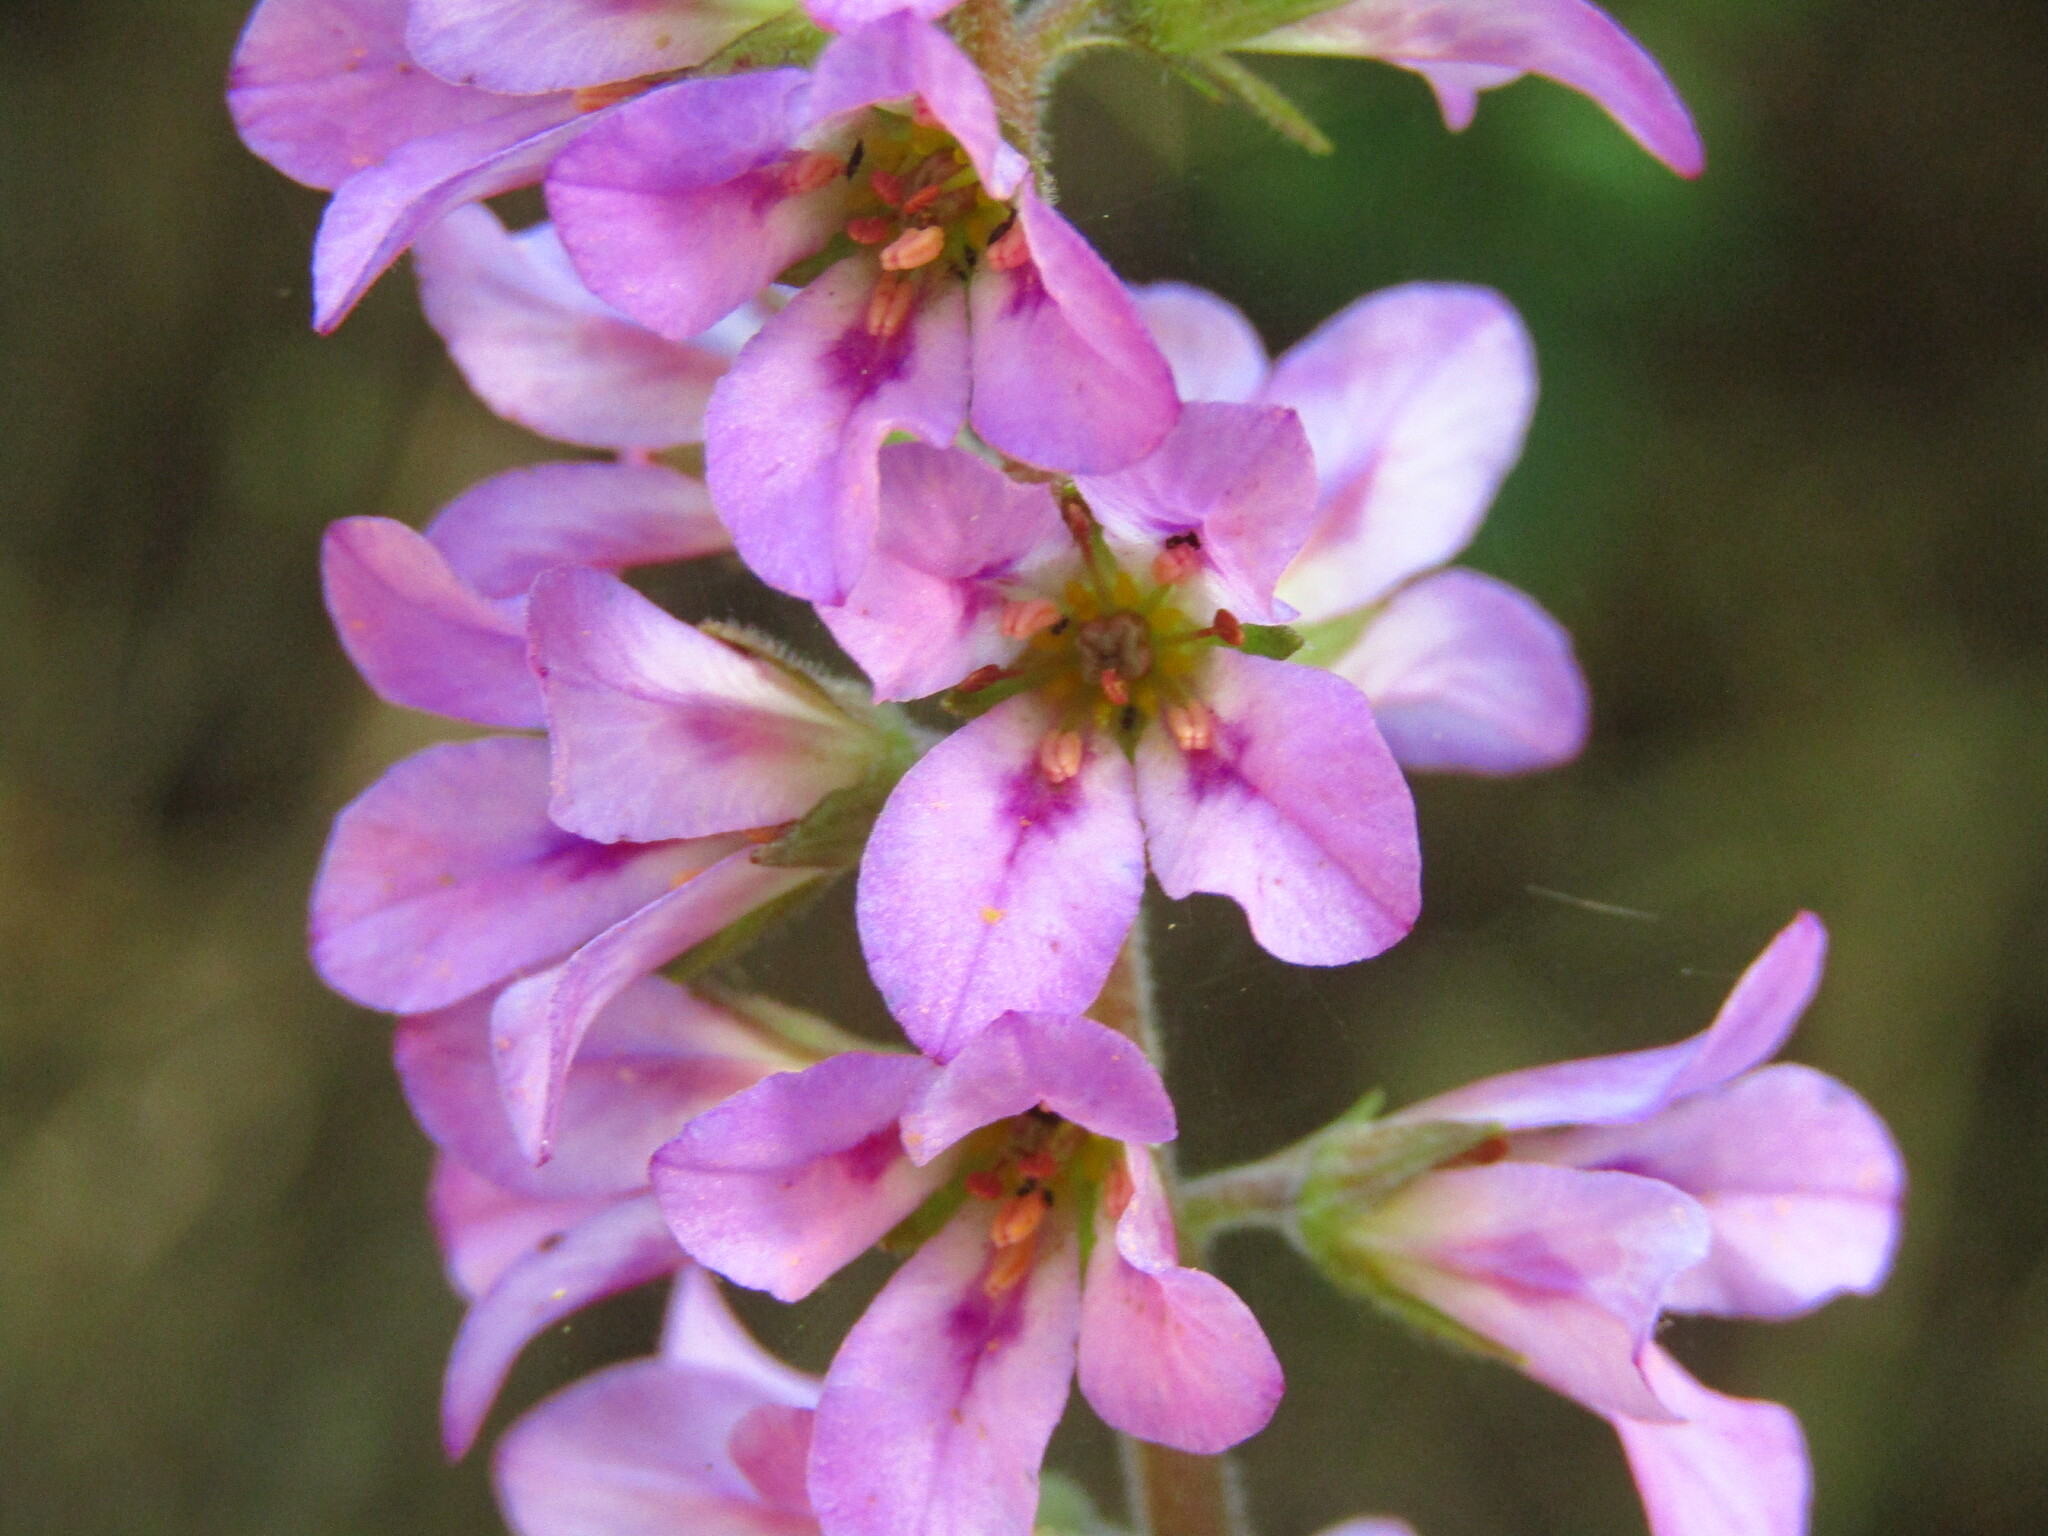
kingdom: Plantae
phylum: Tracheophyta
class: Magnoliopsida
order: Geraniales
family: Francoaceae
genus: Francoa
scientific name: Francoa appendiculata
